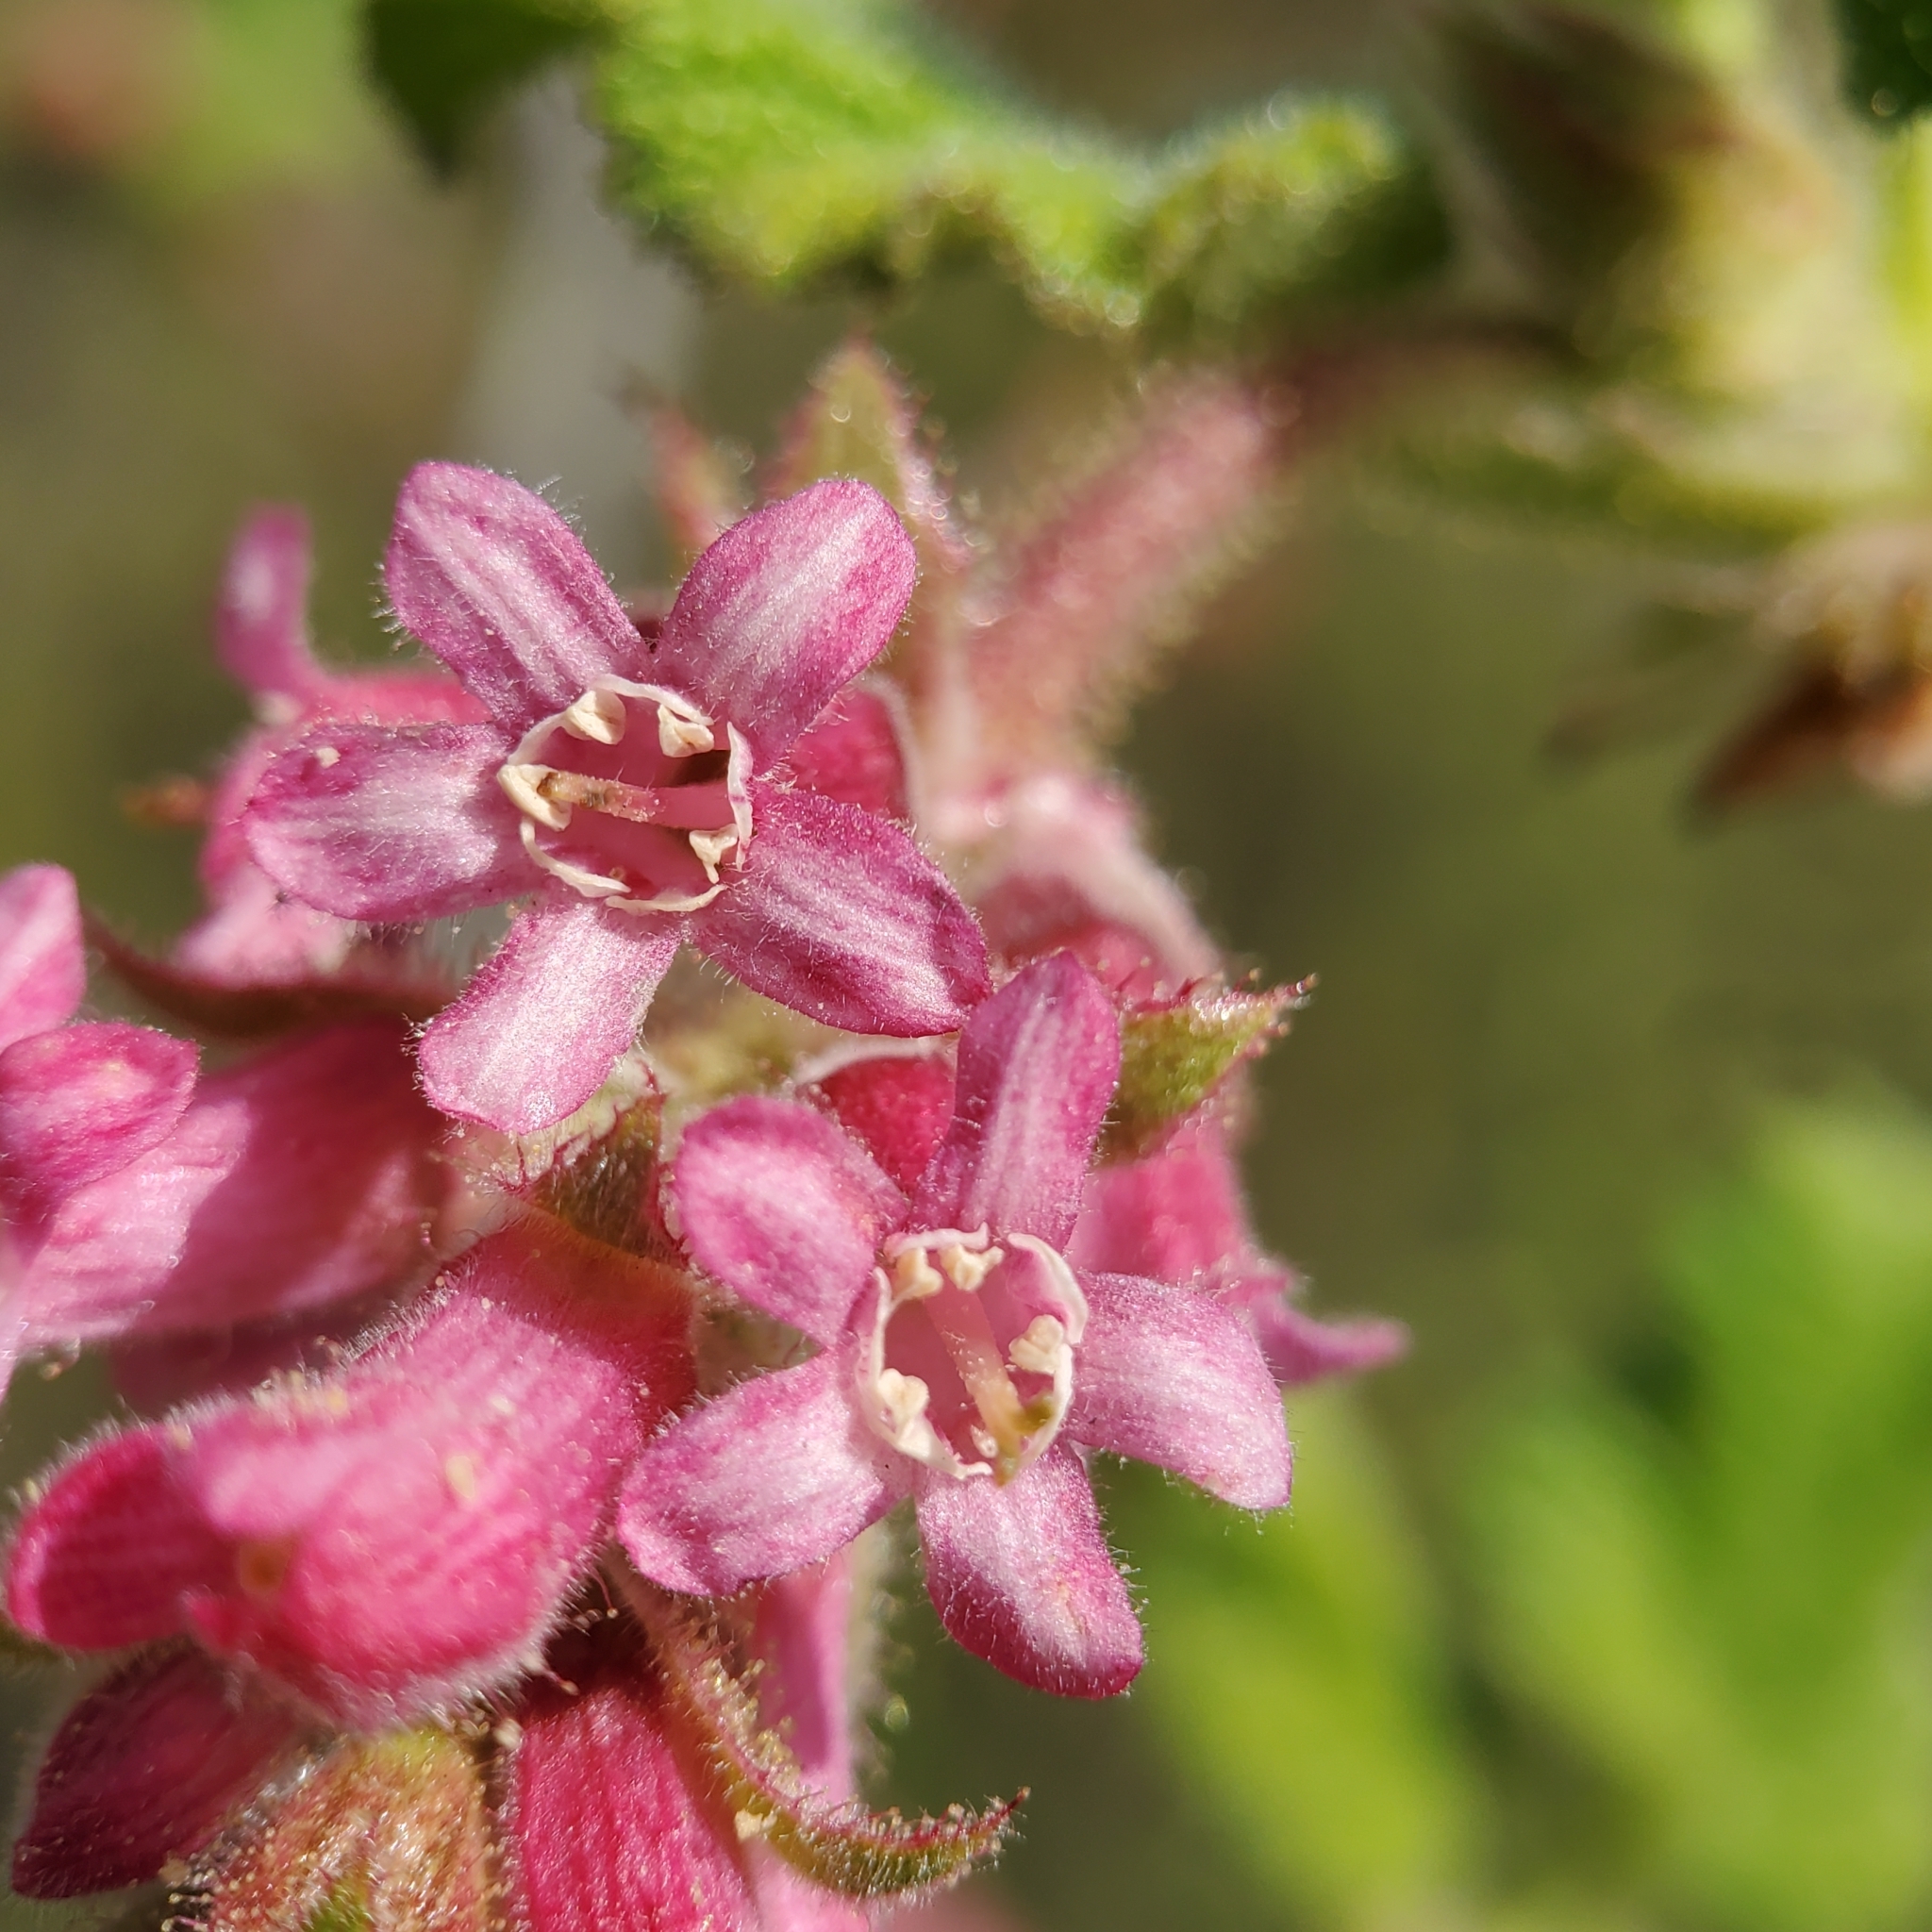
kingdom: Plantae
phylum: Tracheophyta
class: Magnoliopsida
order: Saxifragales
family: Grossulariaceae
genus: Ribes
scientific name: Ribes malvaceum
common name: Chaparral currant
